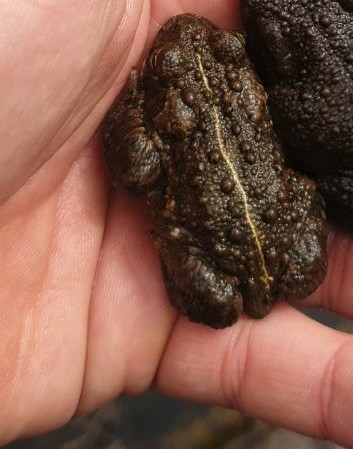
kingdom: Animalia
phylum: Chordata
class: Amphibia
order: Anura
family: Bufonidae
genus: Epidalea
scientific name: Epidalea calamita
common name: Natterjack toad
